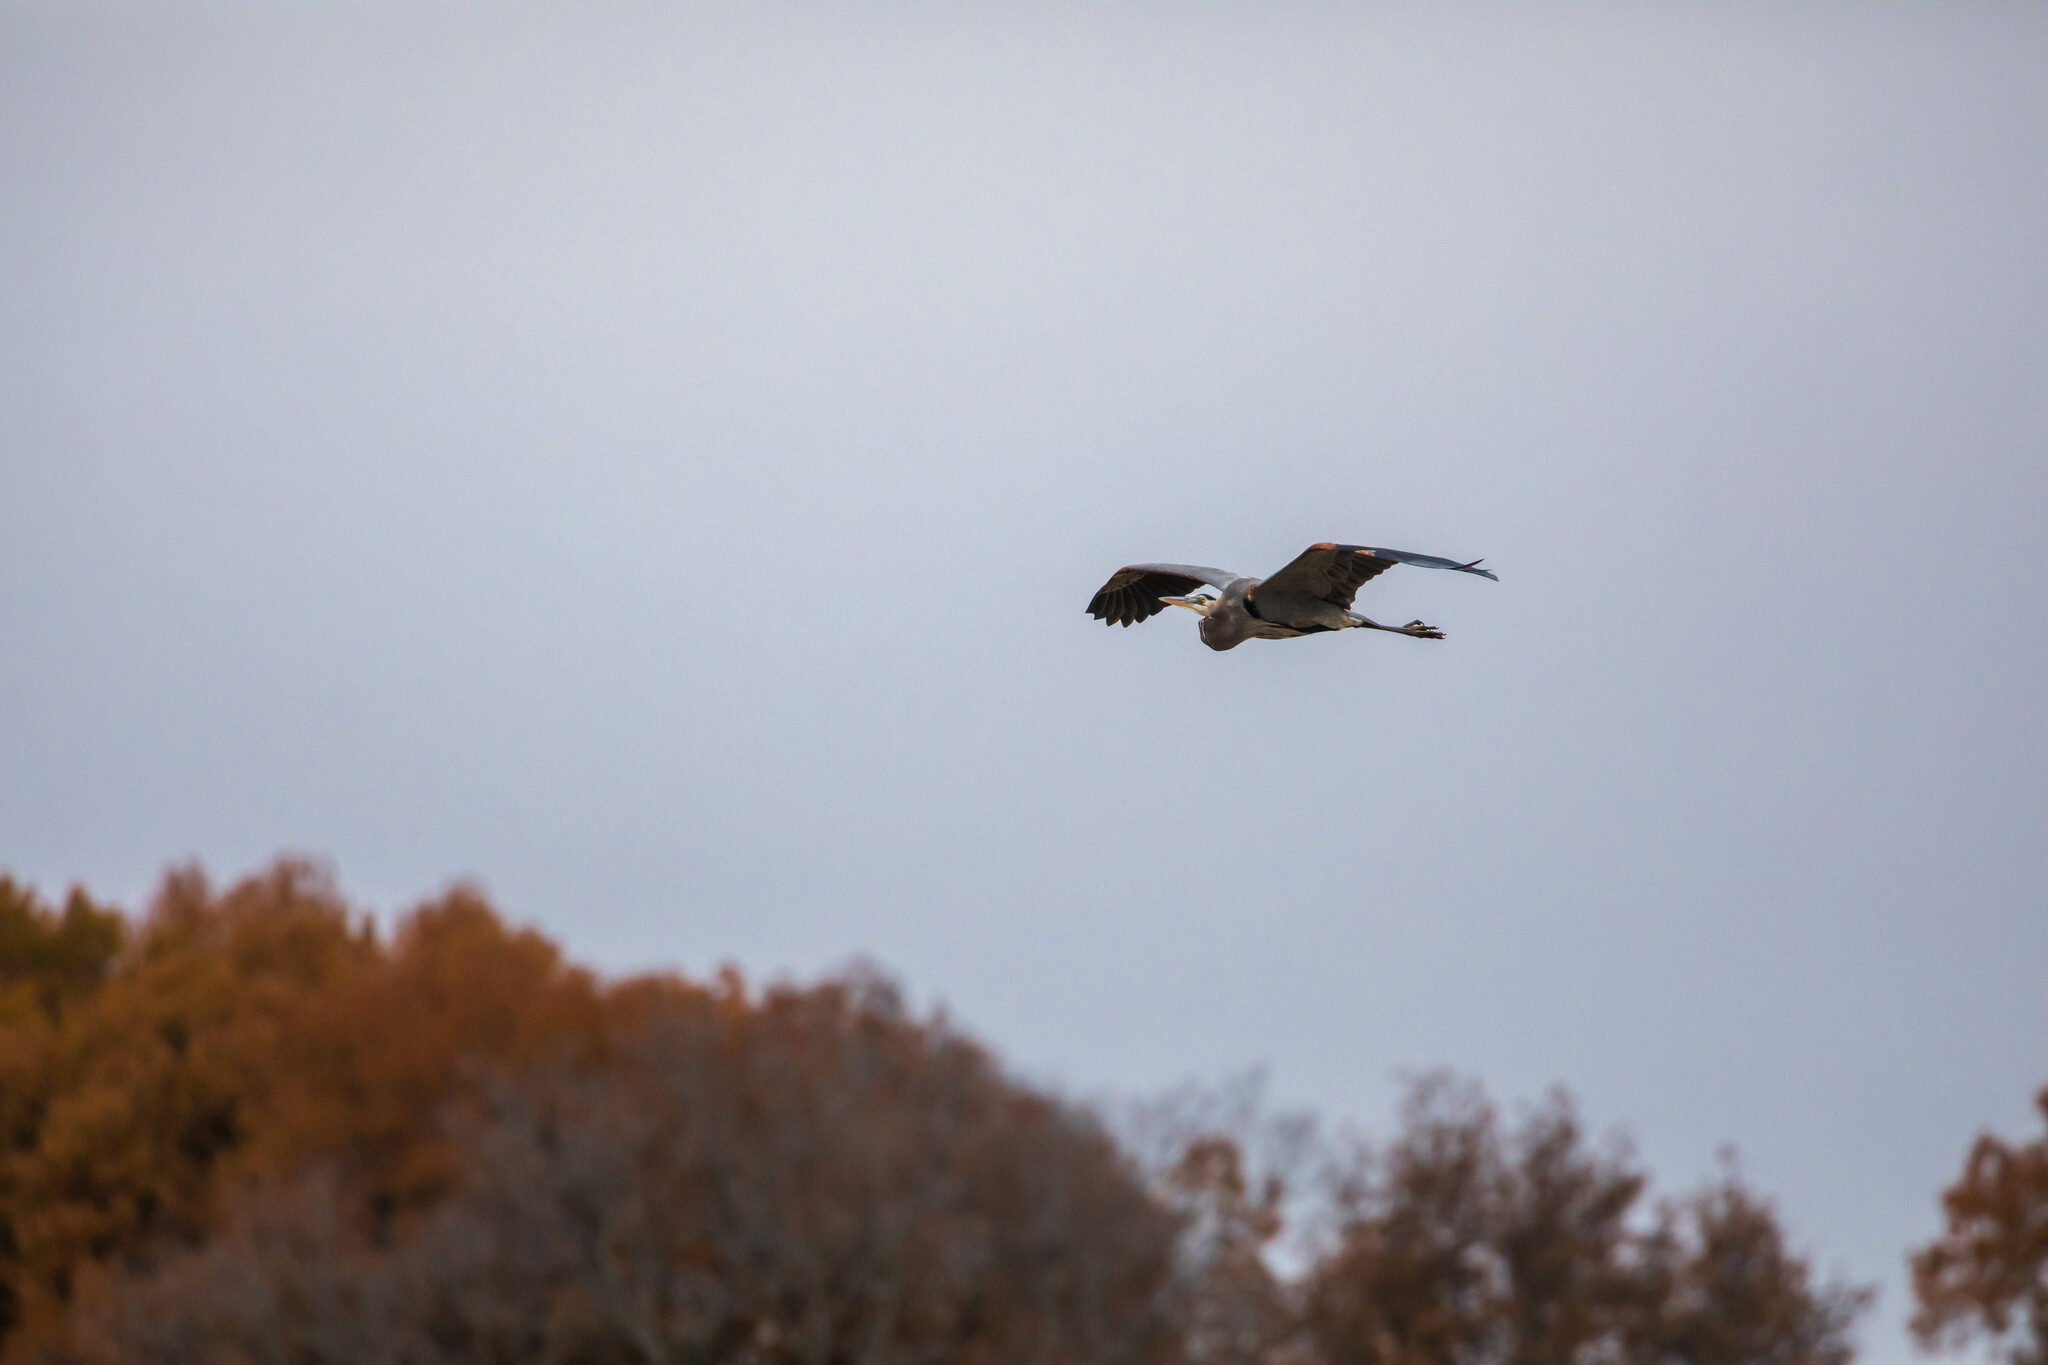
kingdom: Animalia
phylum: Chordata
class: Aves
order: Pelecaniformes
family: Ardeidae
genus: Ardea
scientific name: Ardea herodias
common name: Great blue heron
